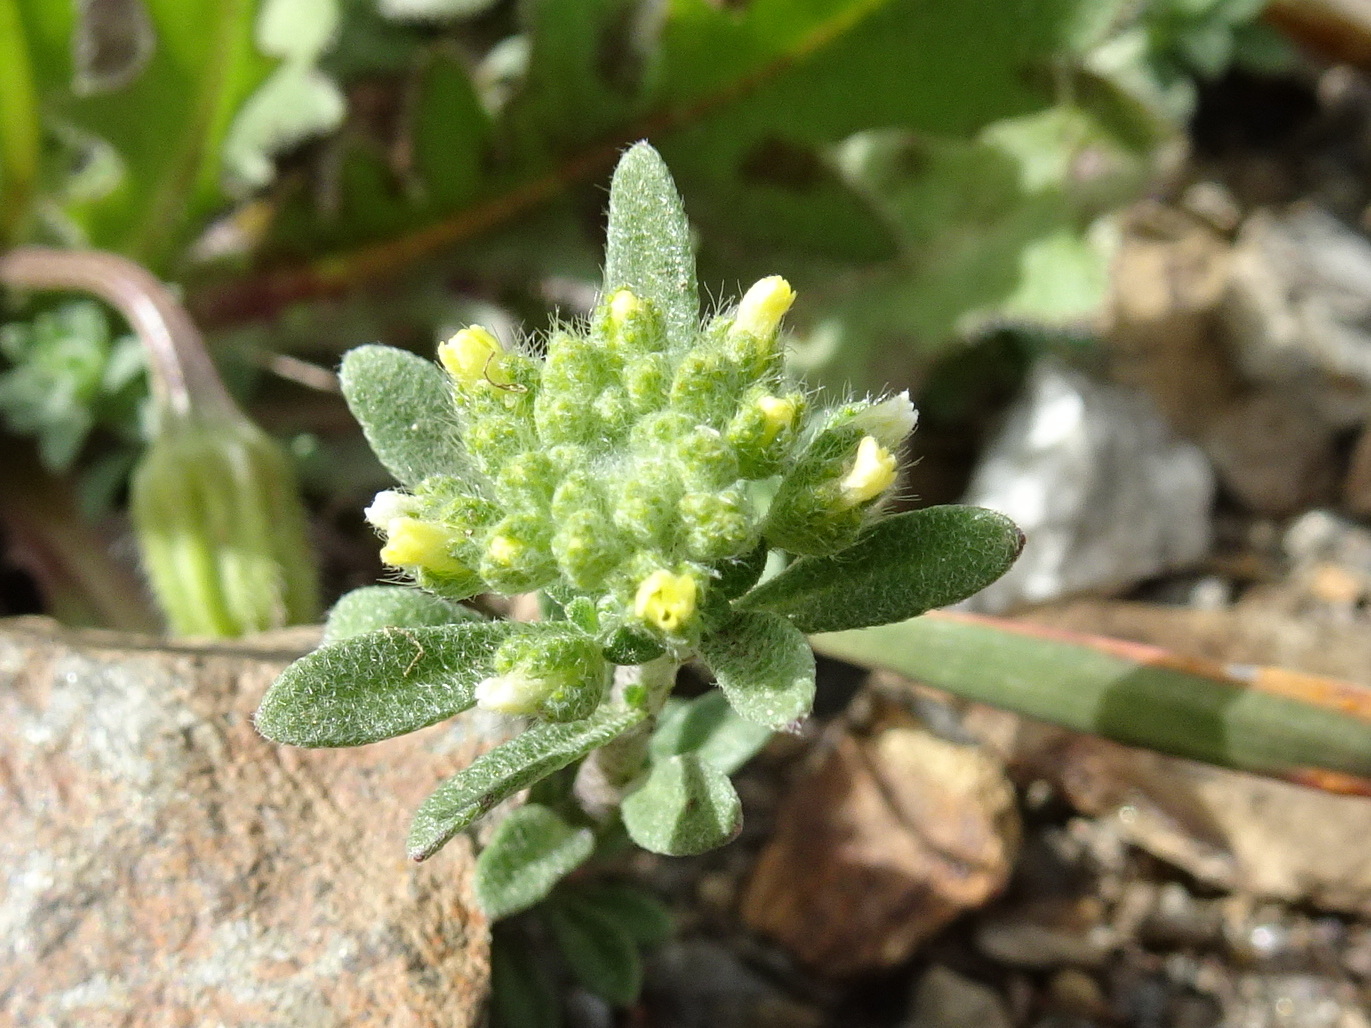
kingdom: Plantae
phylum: Tracheophyta
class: Magnoliopsida
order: Brassicales
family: Brassicaceae
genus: Alyssum
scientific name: Alyssum alyssoides
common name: Small alison
